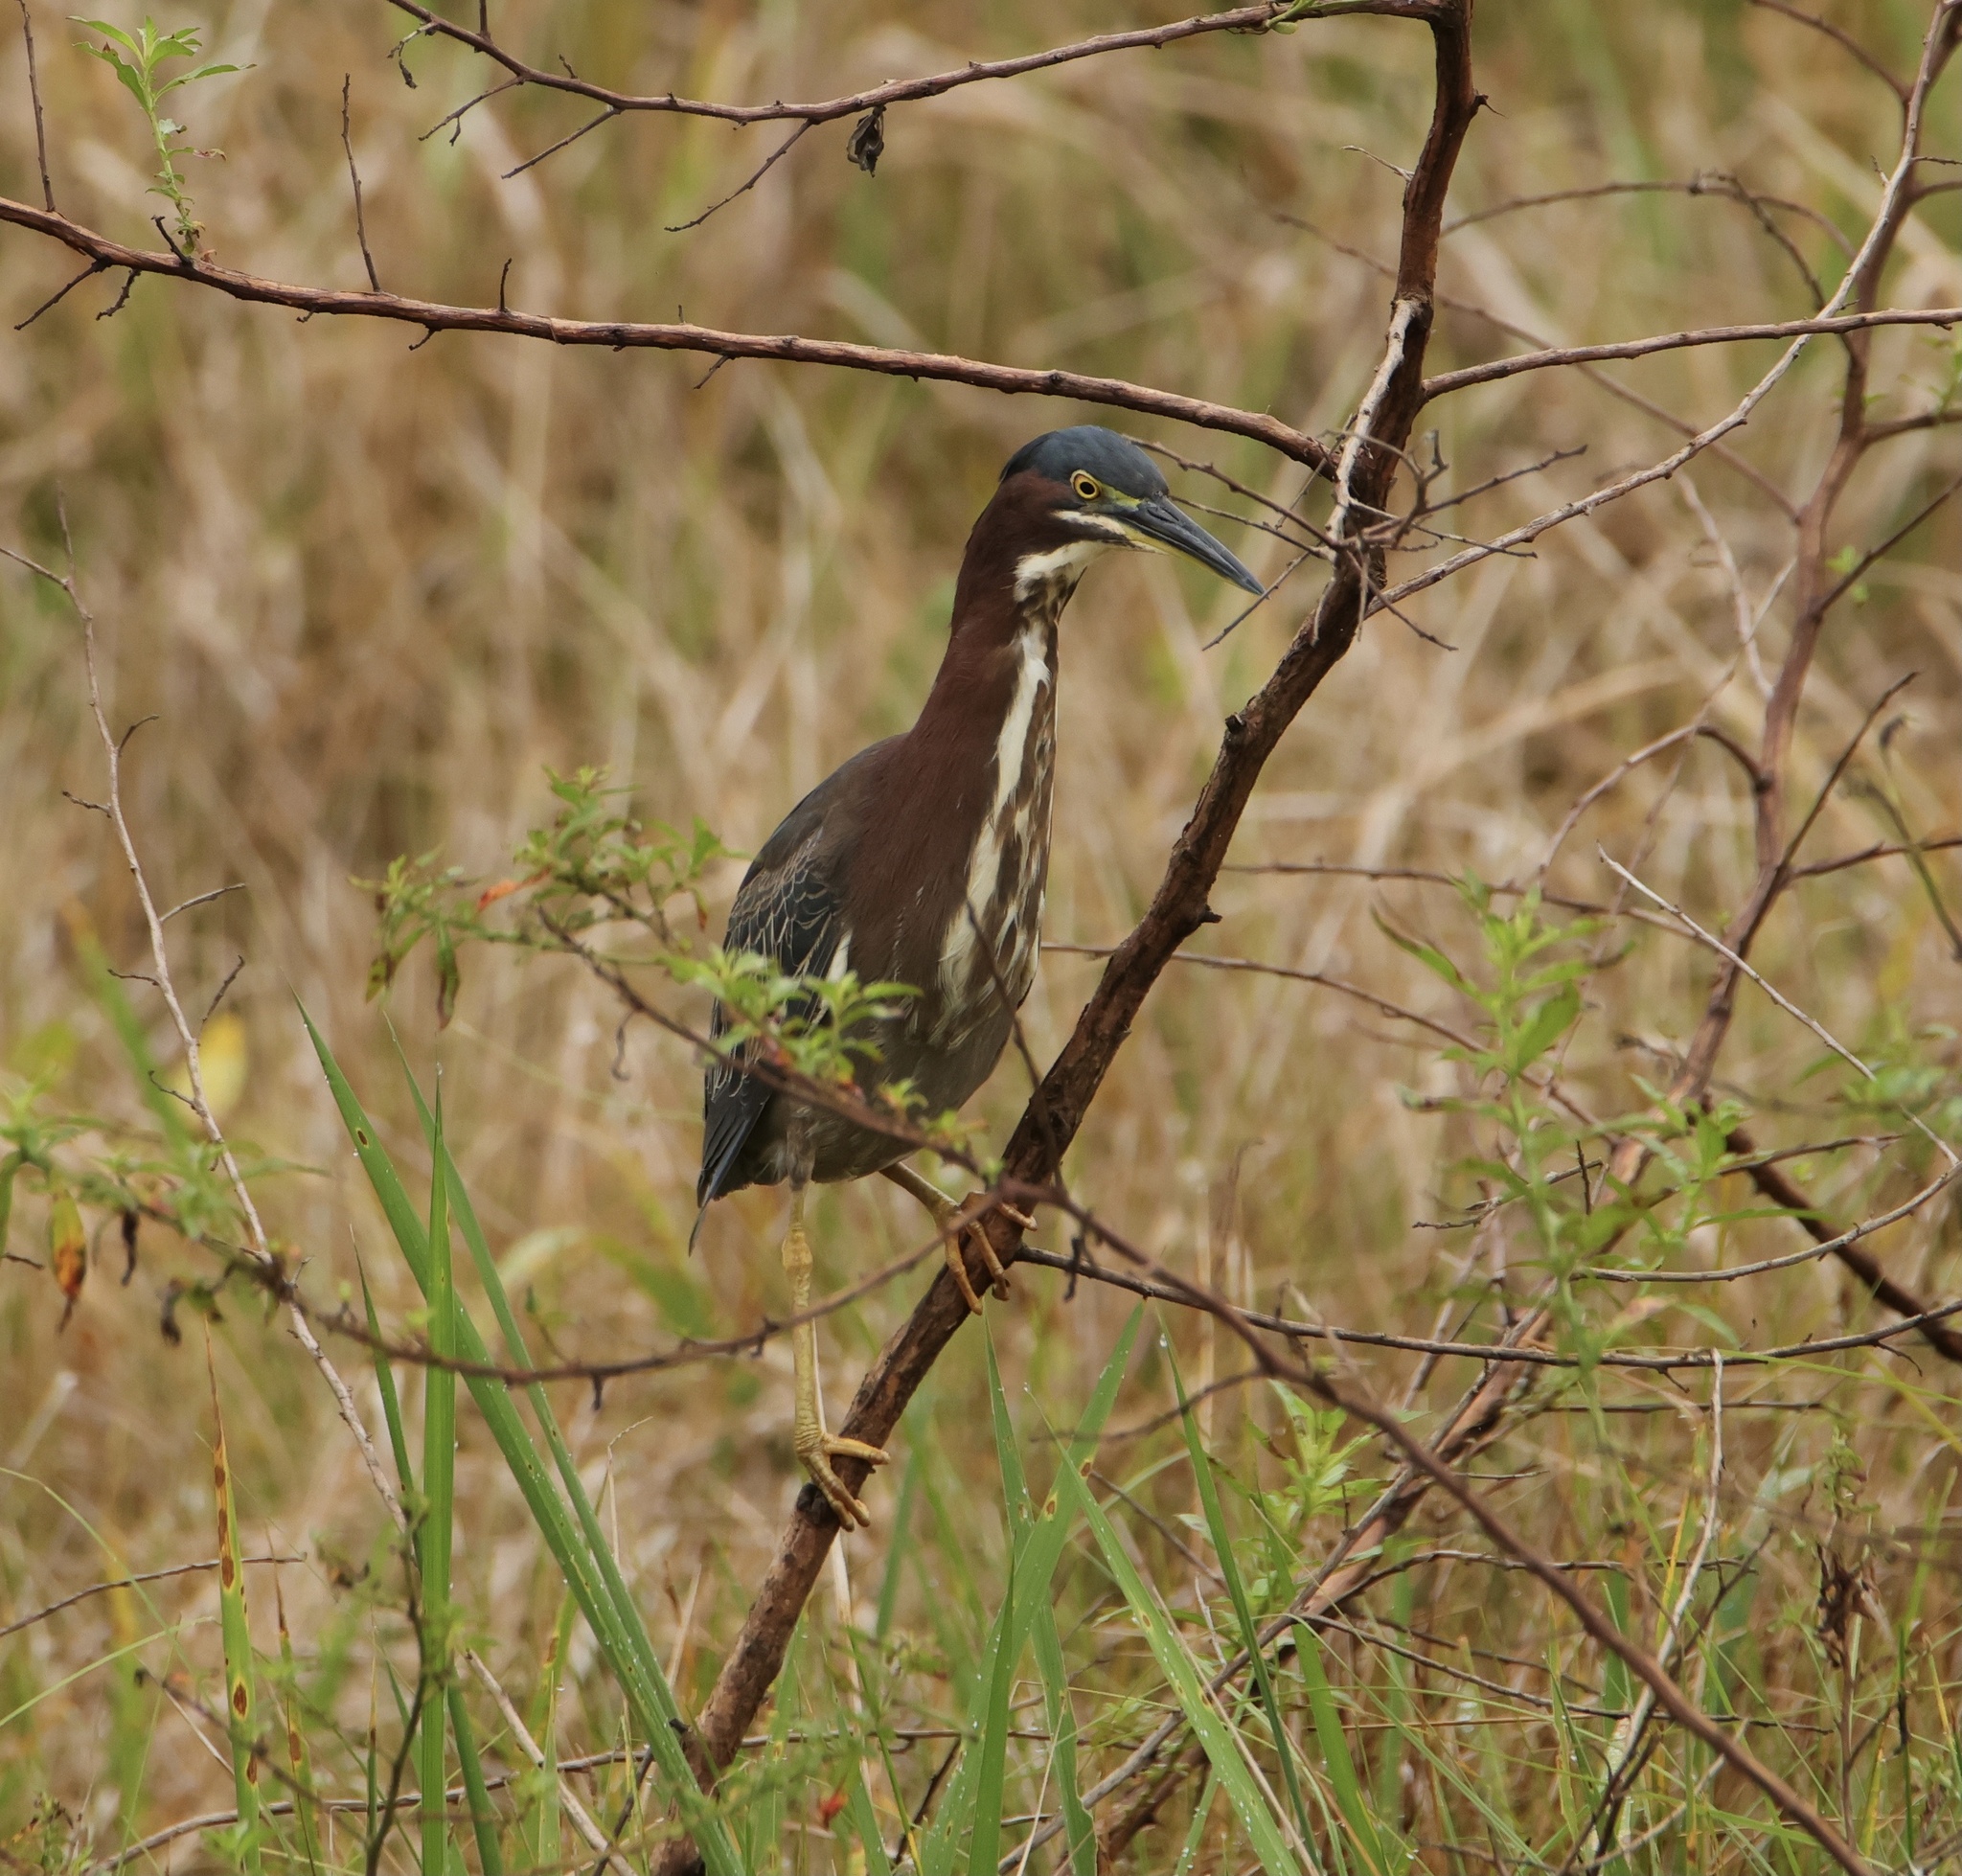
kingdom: Animalia
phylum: Chordata
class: Aves
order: Pelecaniformes
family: Ardeidae
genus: Butorides
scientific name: Butorides virescens
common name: Green heron
